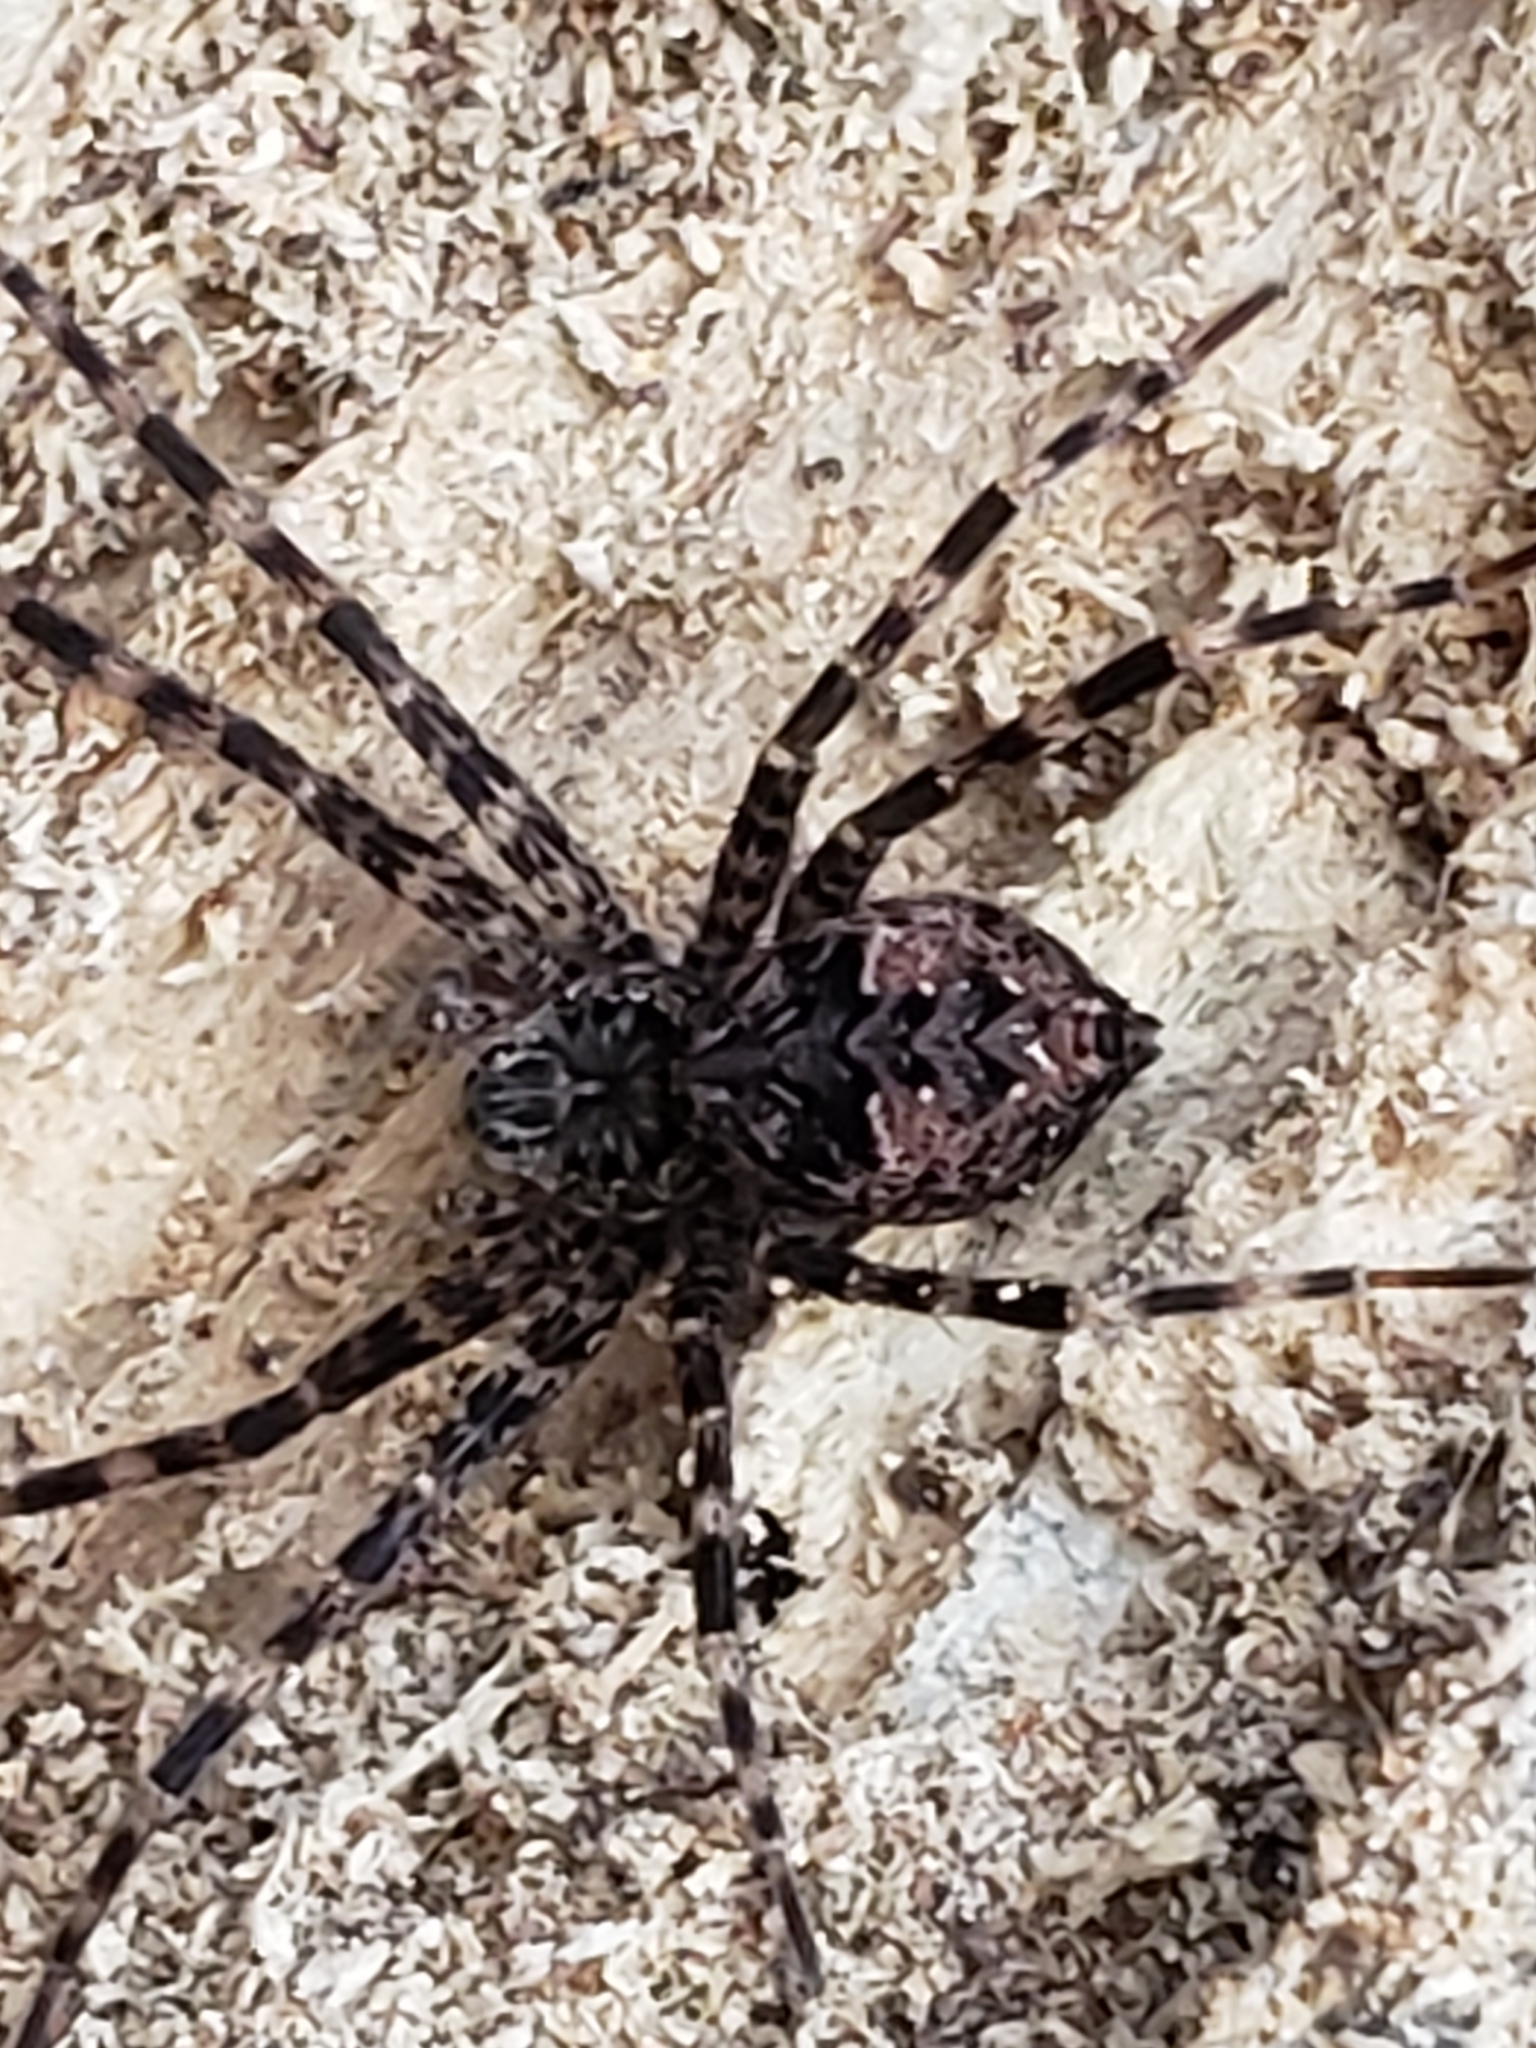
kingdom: Animalia
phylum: Arthropoda
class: Arachnida
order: Araneae
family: Pisauridae
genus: Dolomedes
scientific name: Dolomedes tenebrosus
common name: Dark fishing spider
